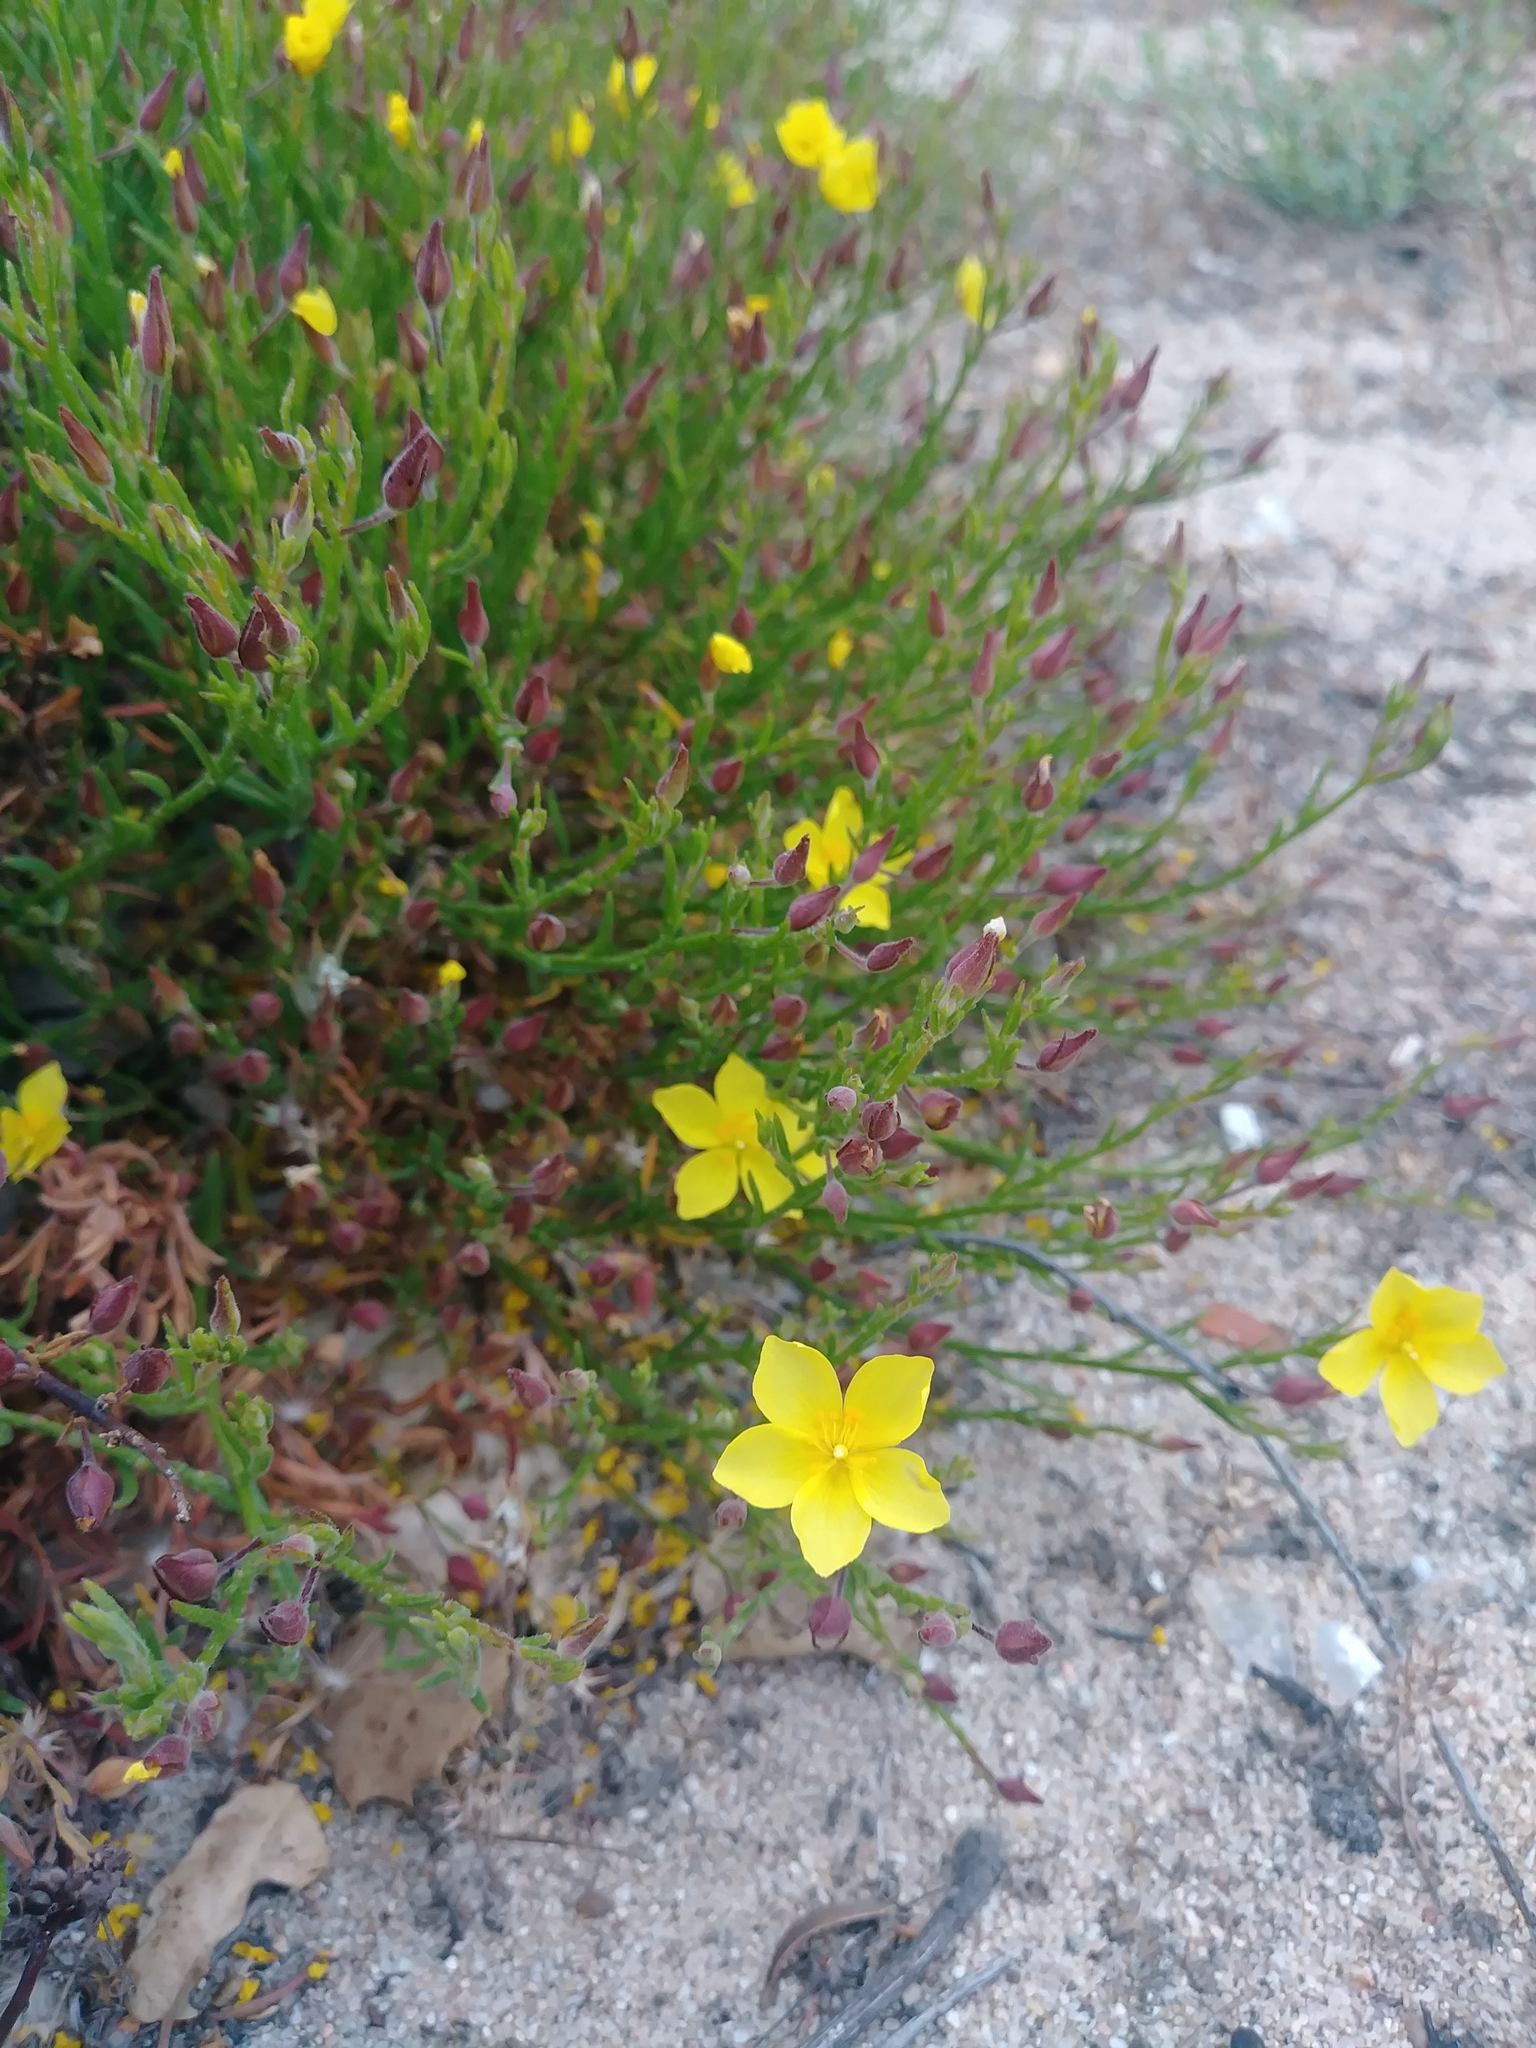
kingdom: Plantae
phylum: Tracheophyta
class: Magnoliopsida
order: Malvales
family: Cistaceae
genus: Crocanthemum
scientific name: Crocanthemum scoparium
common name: Broom-rose
